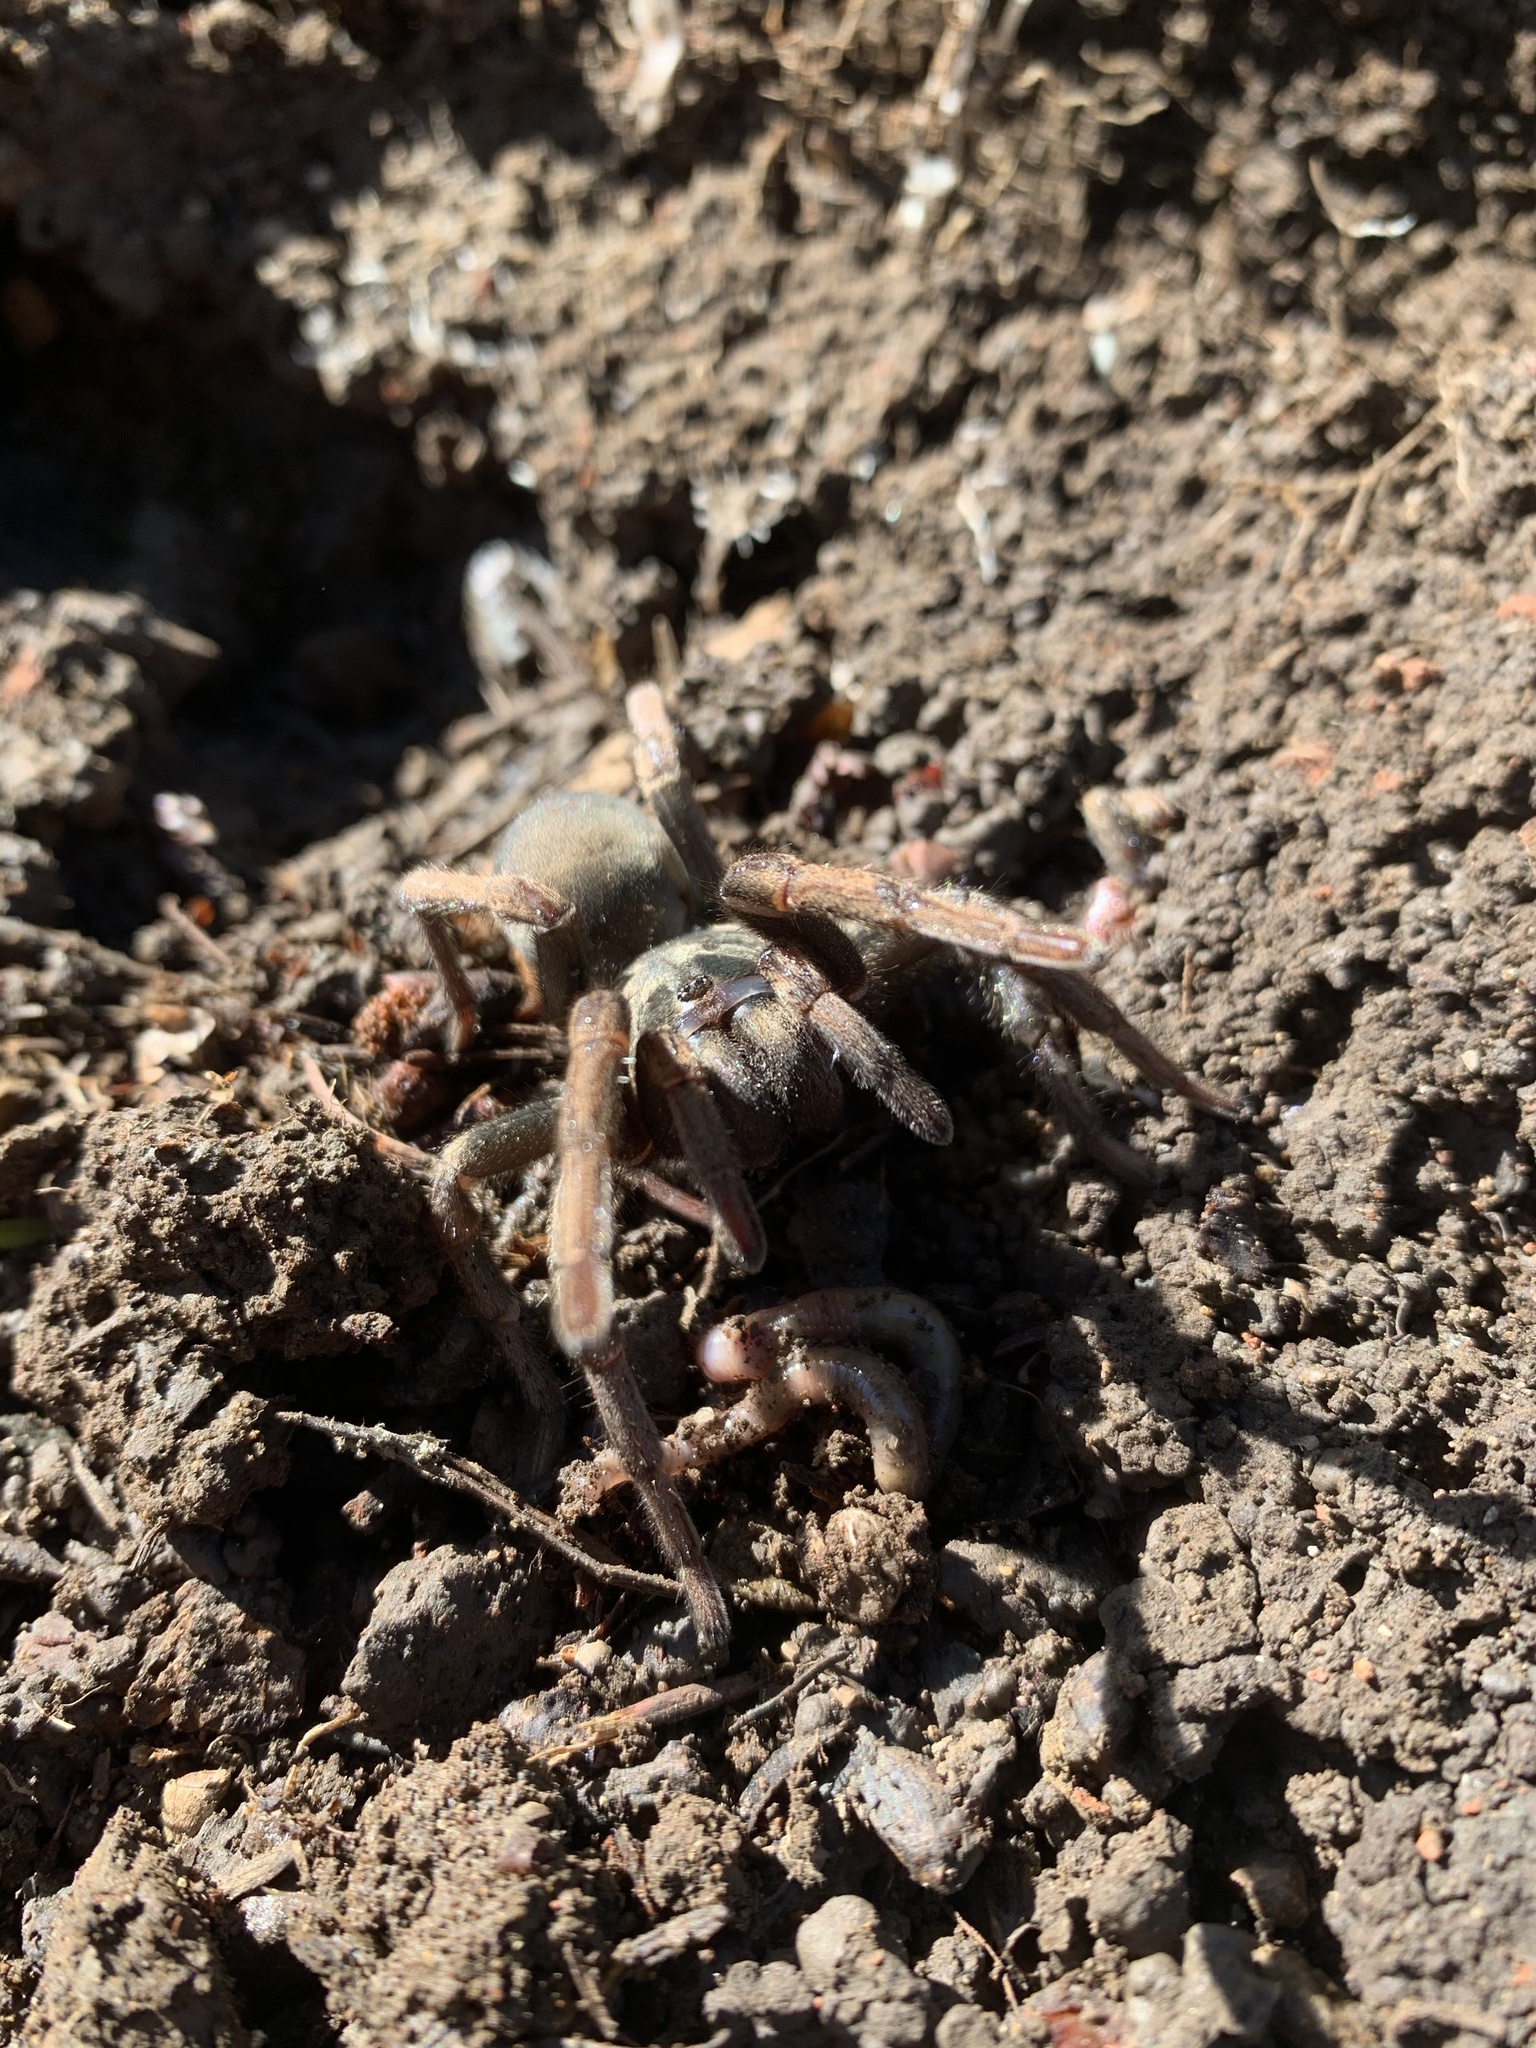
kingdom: Animalia
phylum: Arthropoda
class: Arachnida
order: Araneae
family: Nemesiidae
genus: Calisoga
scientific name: Calisoga longitarsis
